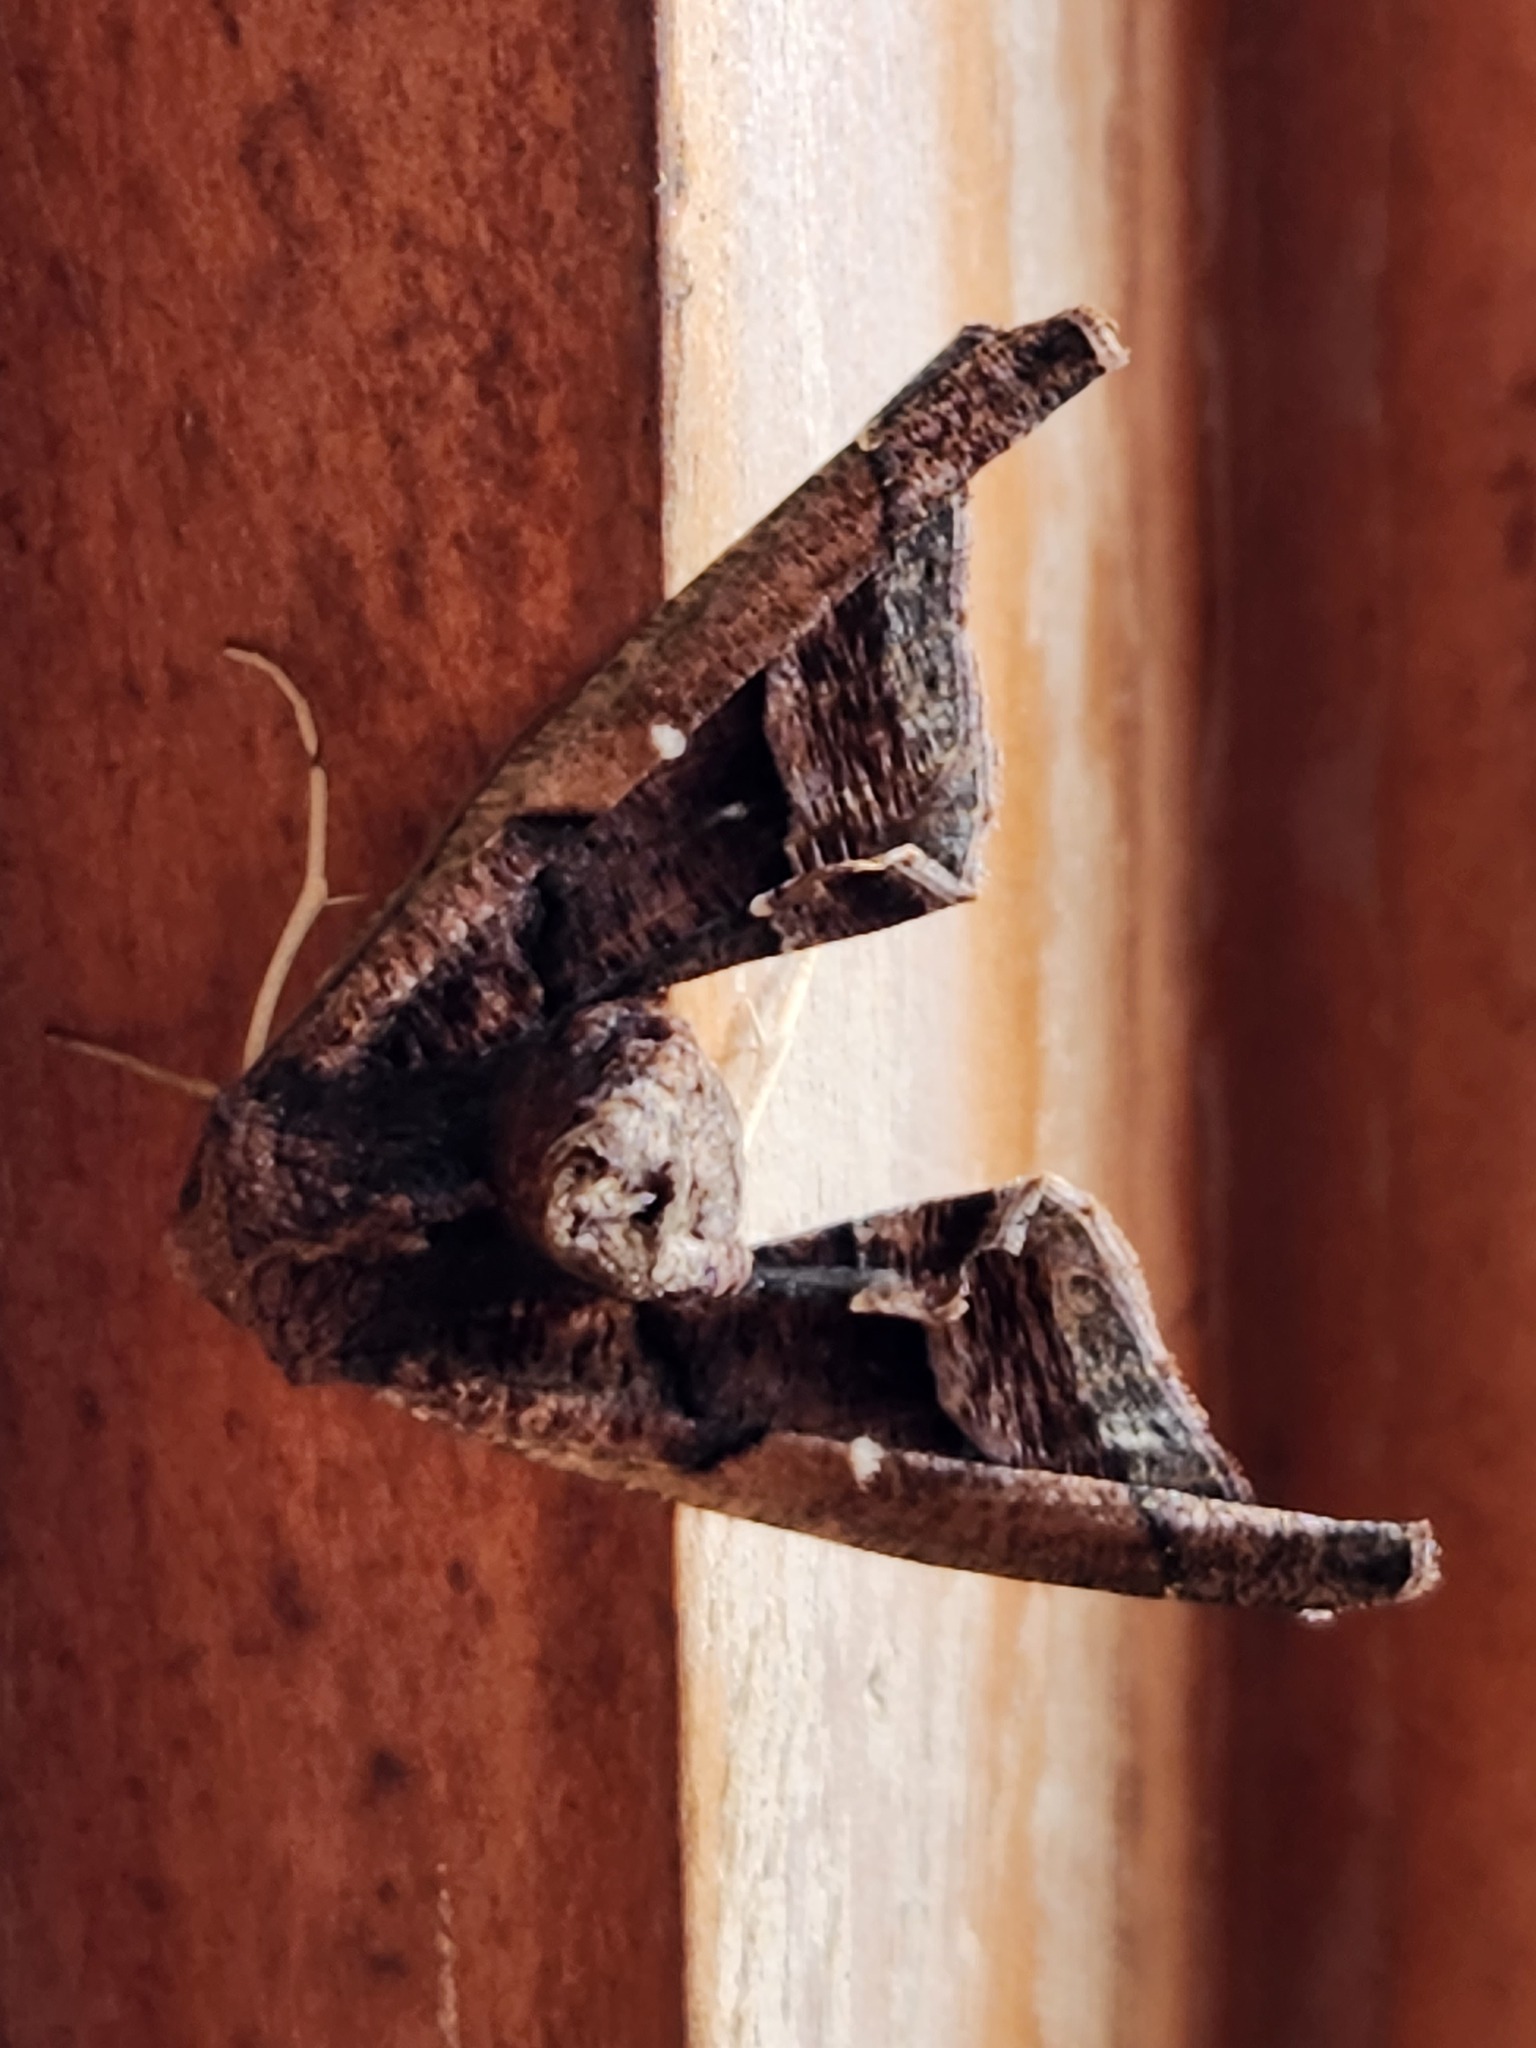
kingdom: Animalia
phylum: Arthropoda
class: Insecta
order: Lepidoptera
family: Geometridae
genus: Pero
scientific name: Pero caliginosa
